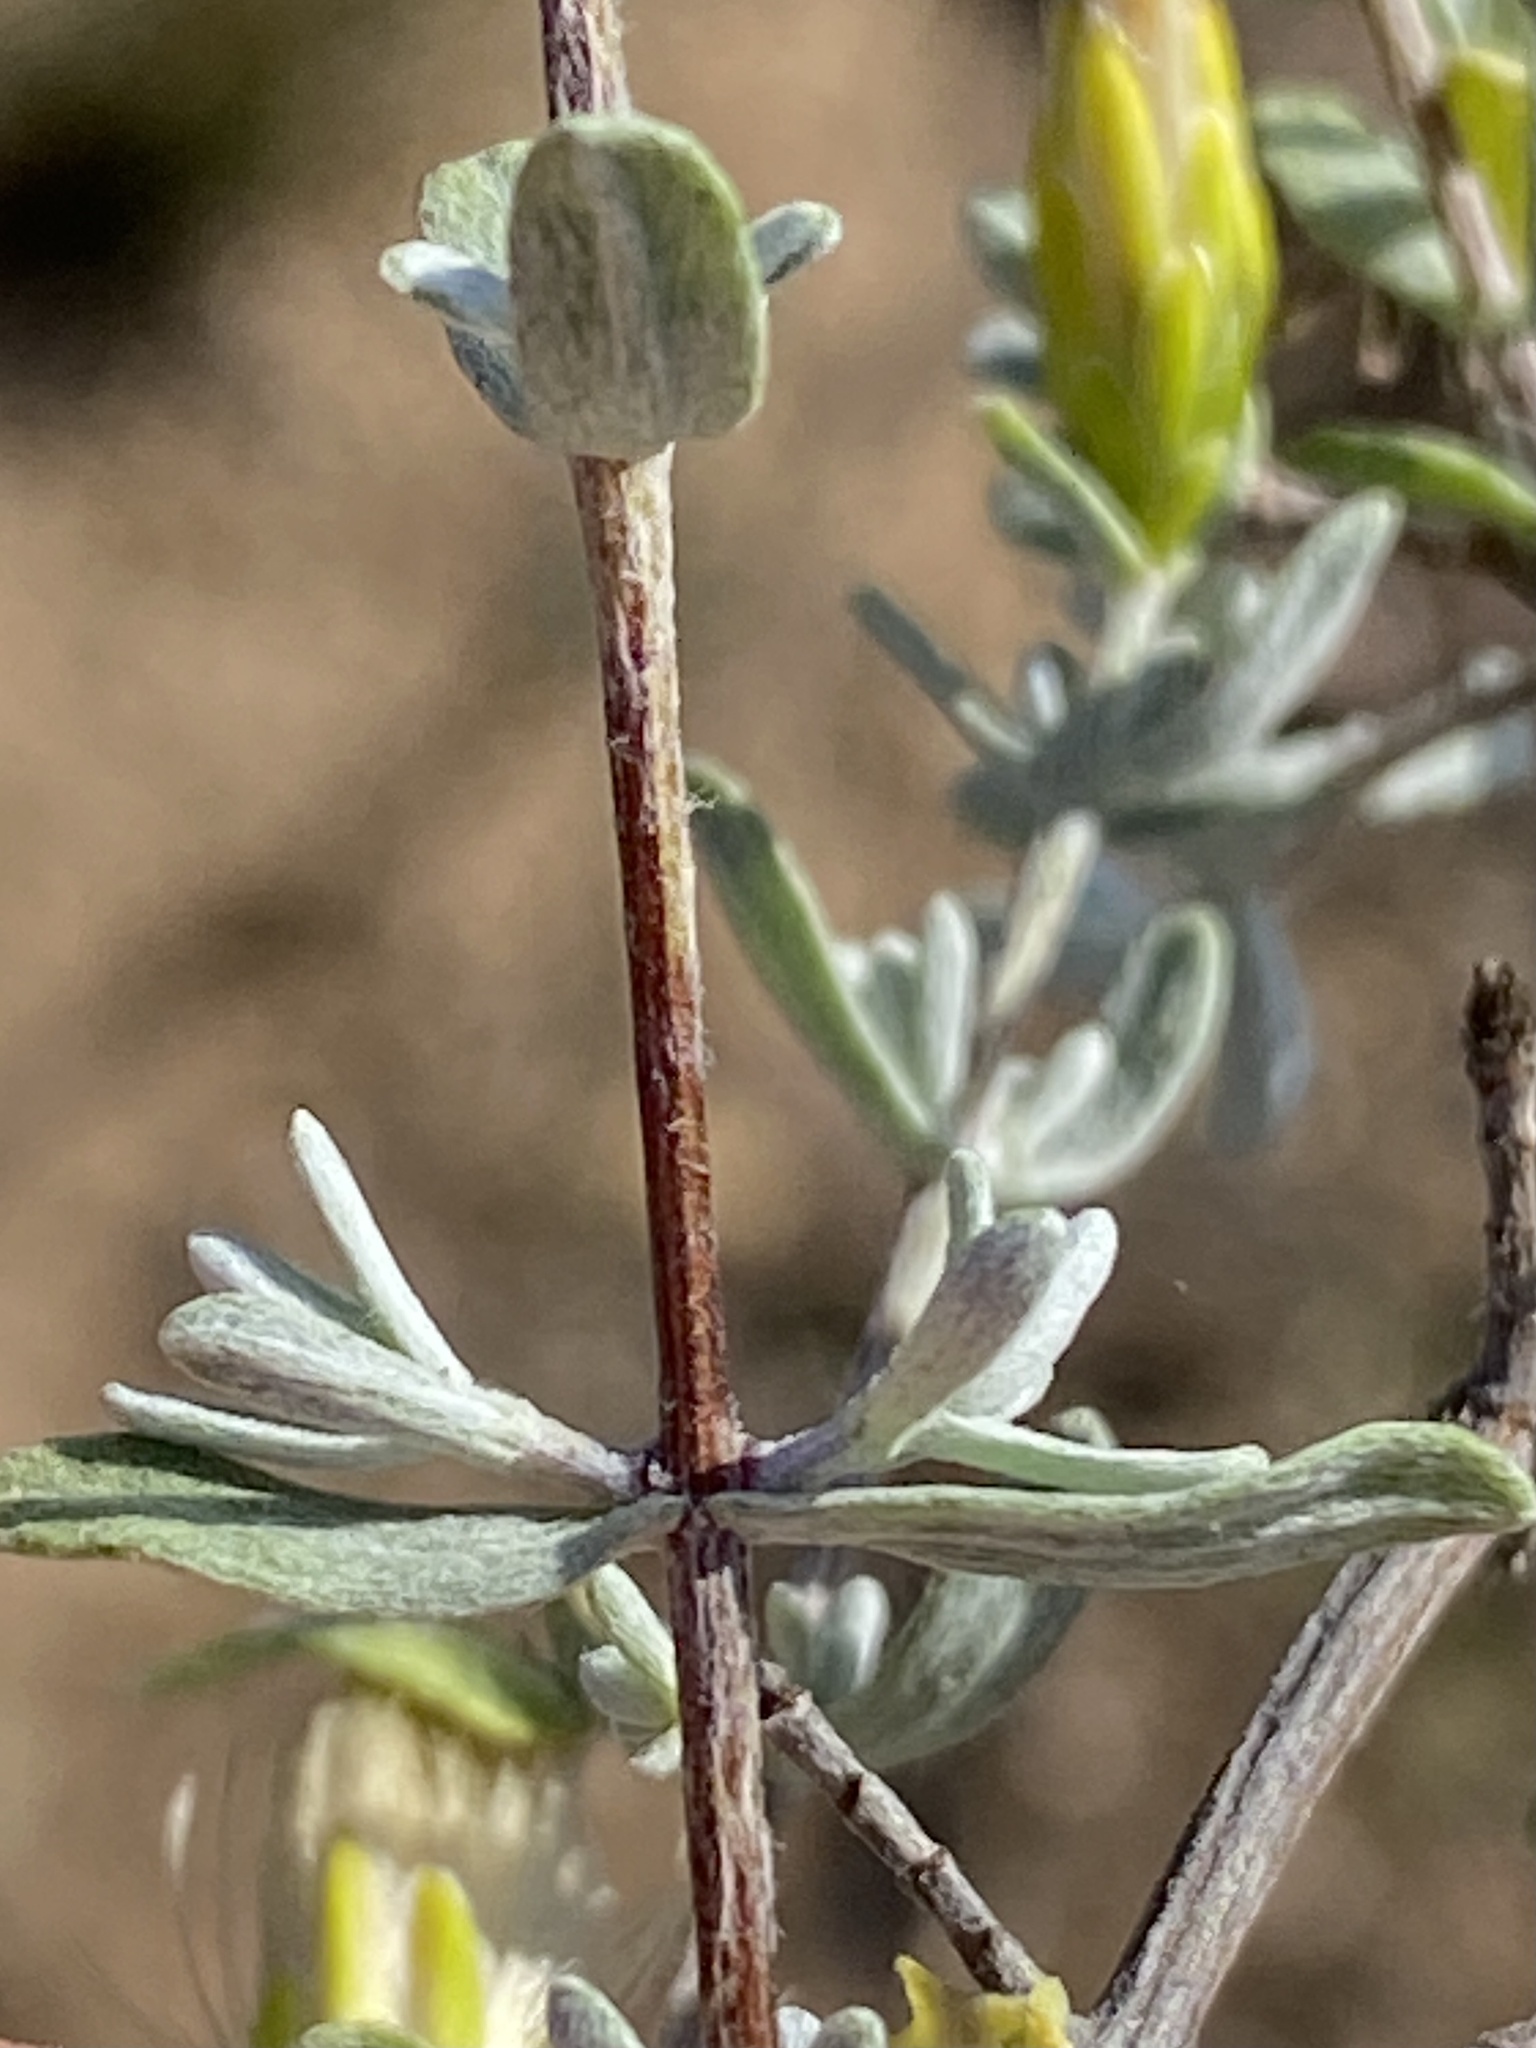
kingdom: Plantae
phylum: Tracheophyta
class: Magnoliopsida
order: Asterales
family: Asteraceae
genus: Pteronia
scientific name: Pteronia incana
